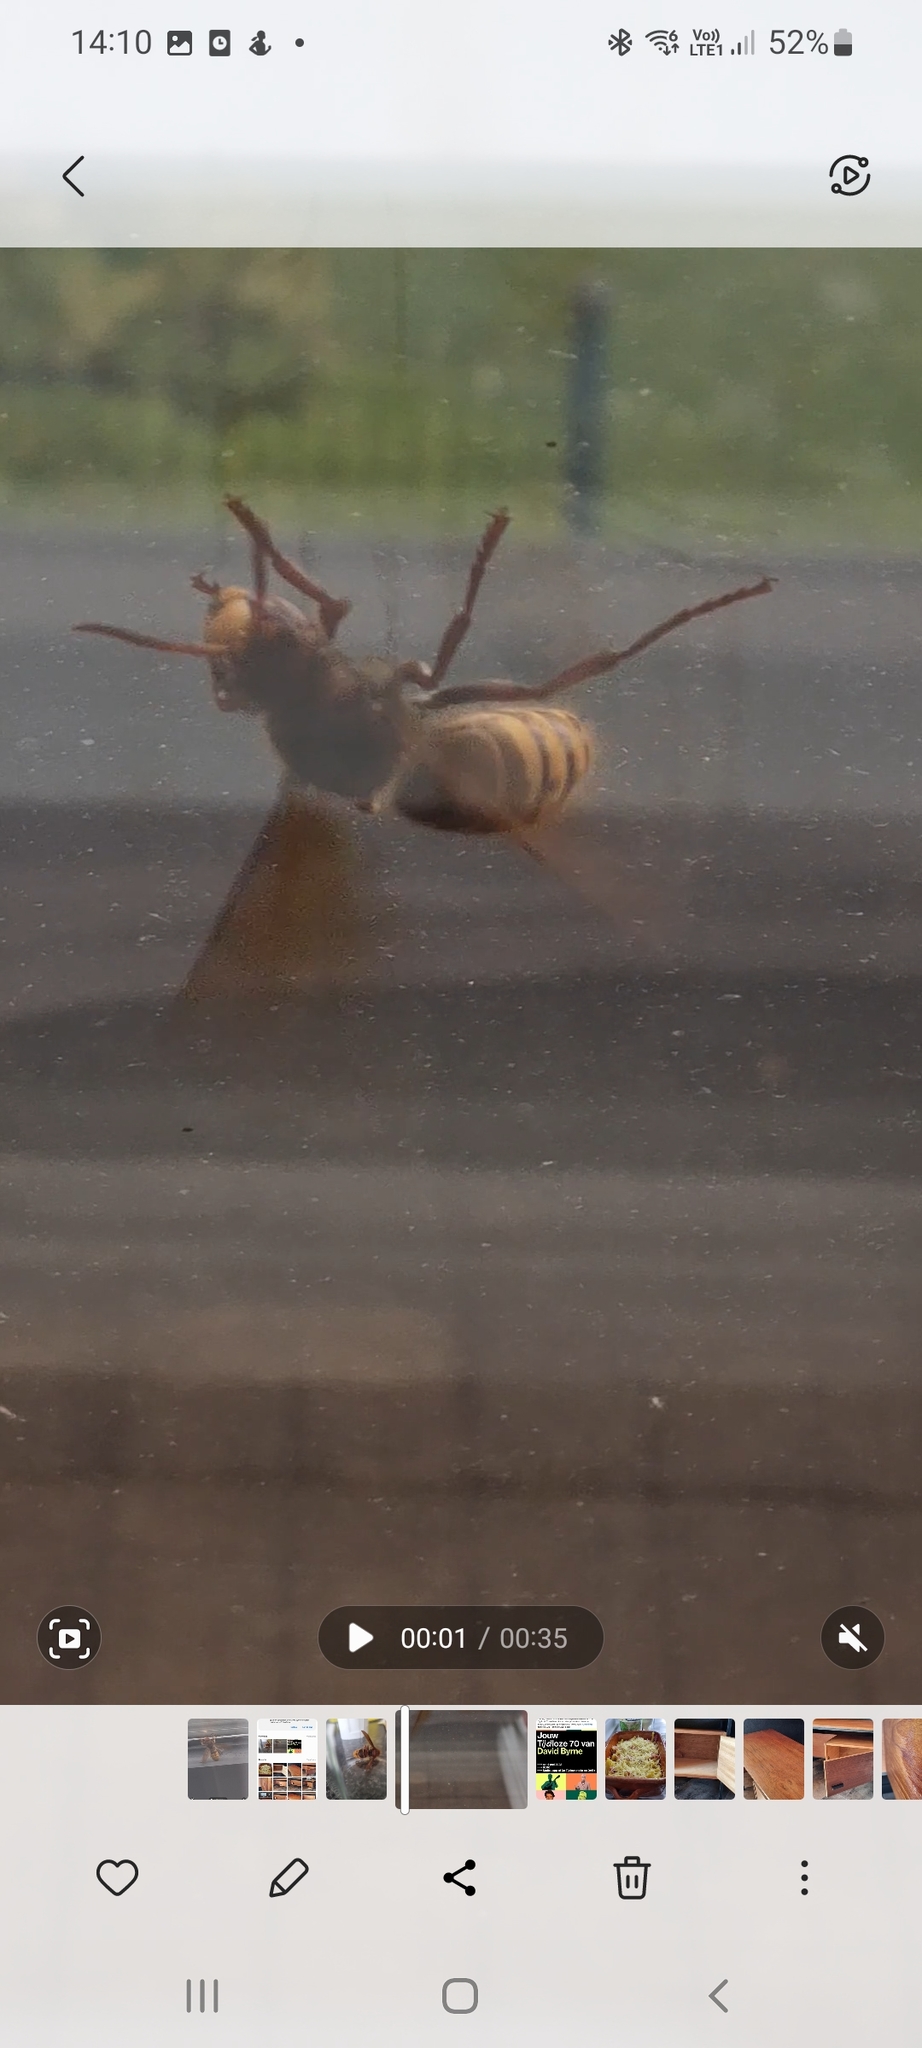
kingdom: Animalia
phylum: Arthropoda
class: Insecta
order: Hymenoptera
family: Vespidae
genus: Vespa
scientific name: Vespa crabro
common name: Hornet
